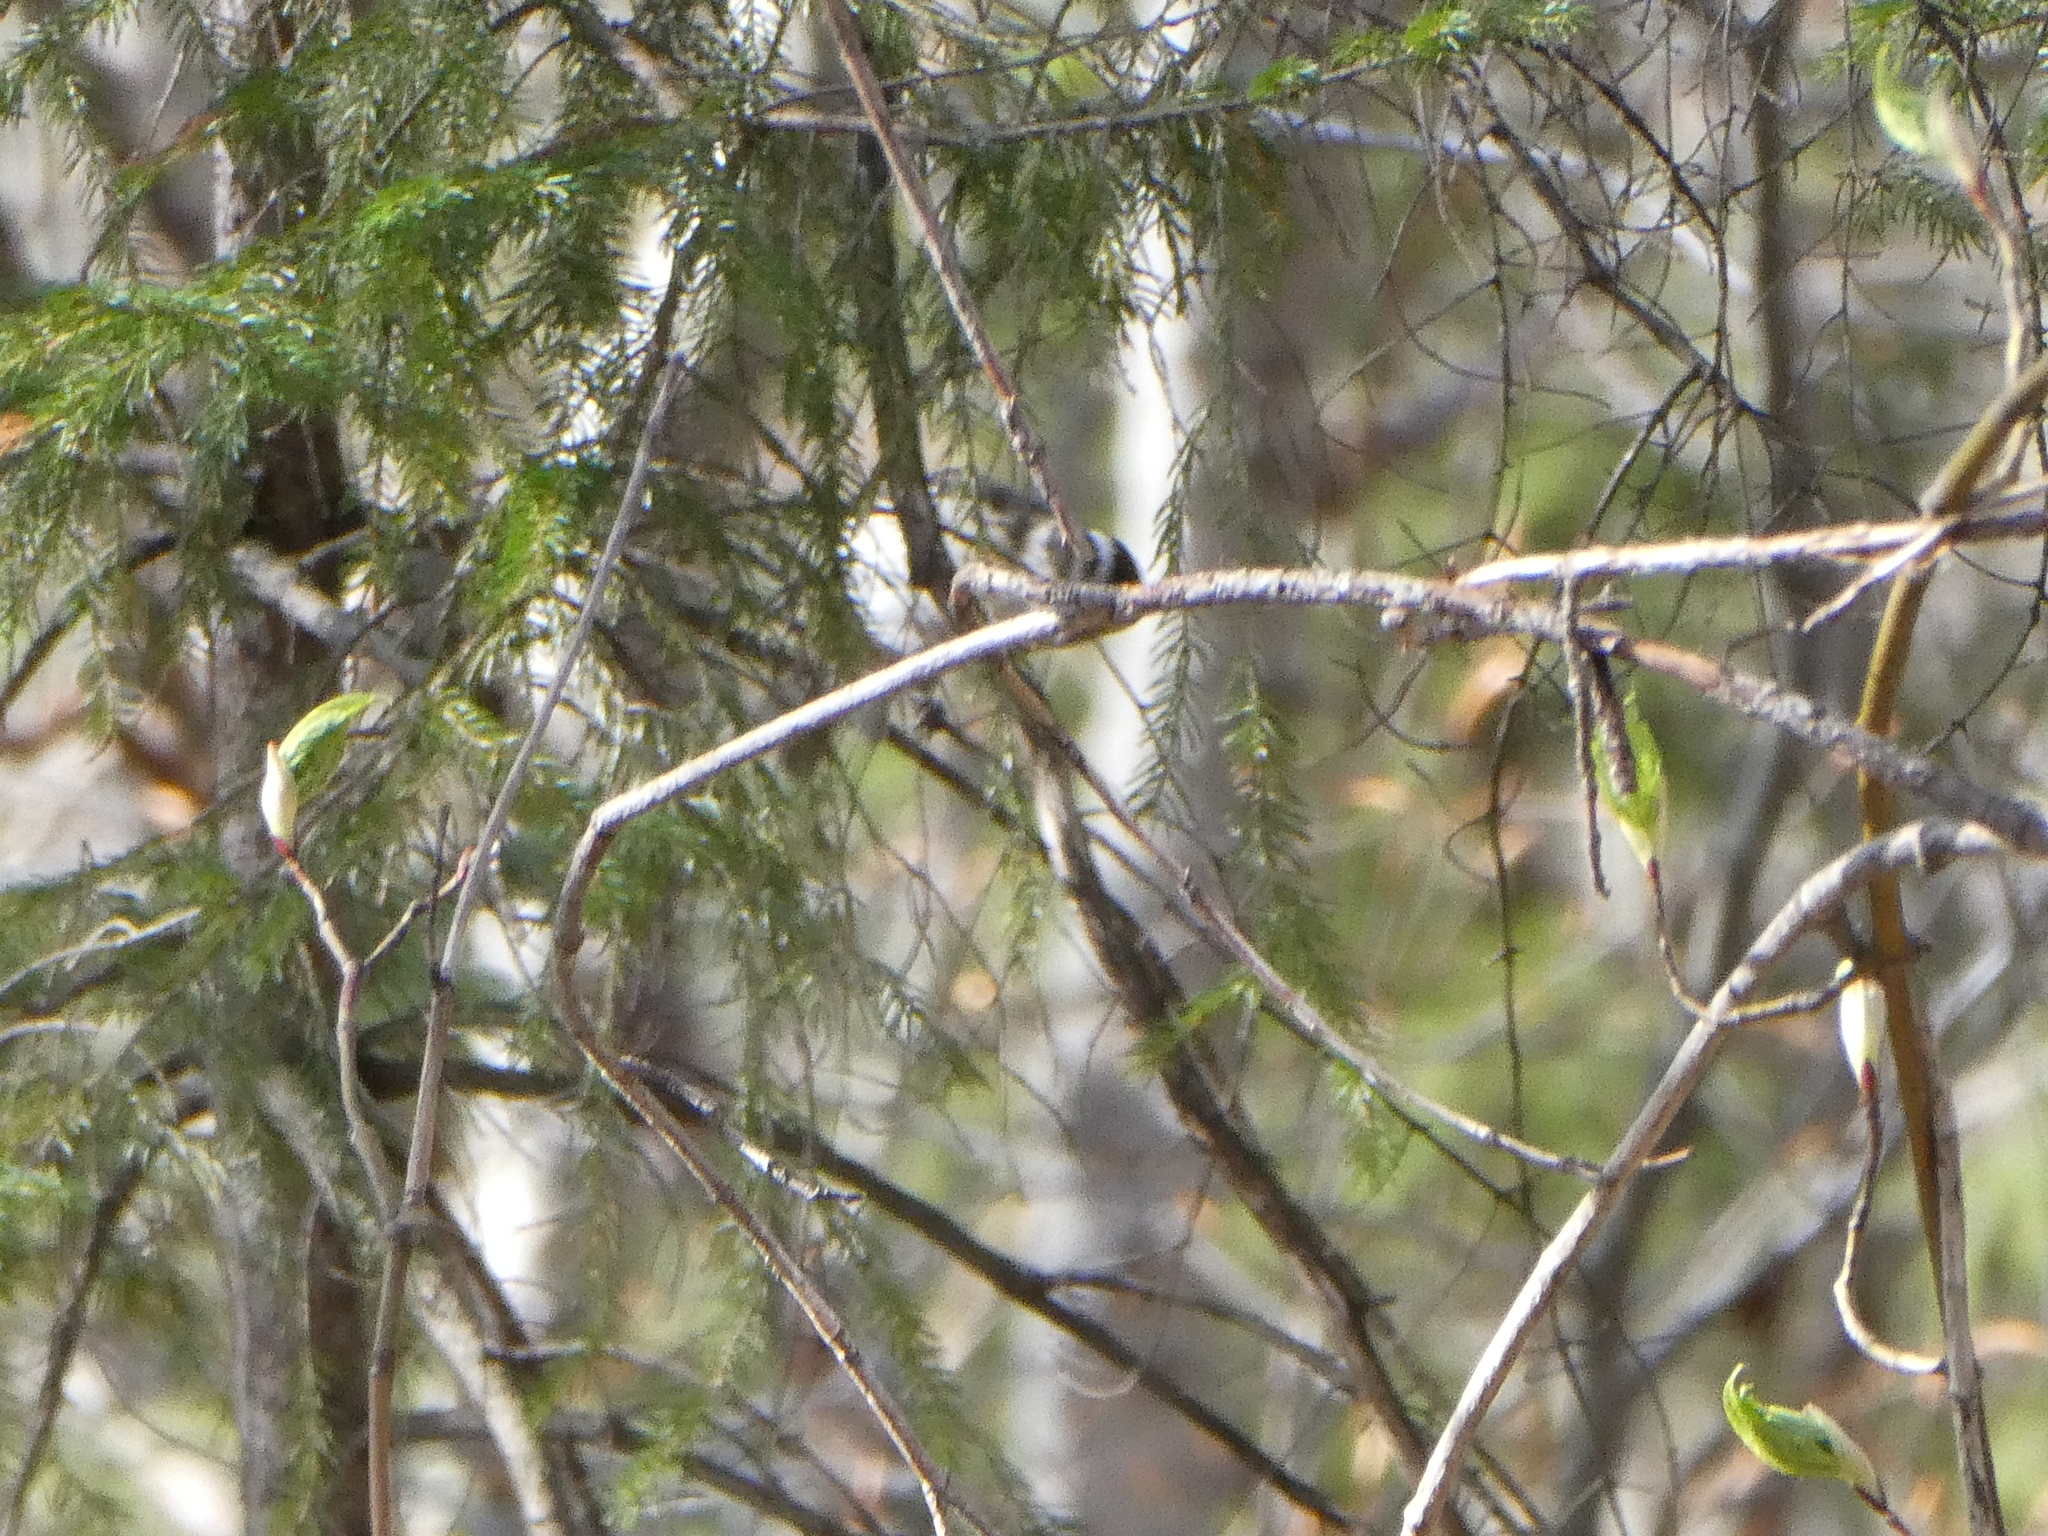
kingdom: Animalia
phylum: Chordata
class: Aves
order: Passeriformes
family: Cardinalidae
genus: Pheucticus
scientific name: Pheucticus ludovicianus
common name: Rose-breasted grosbeak
